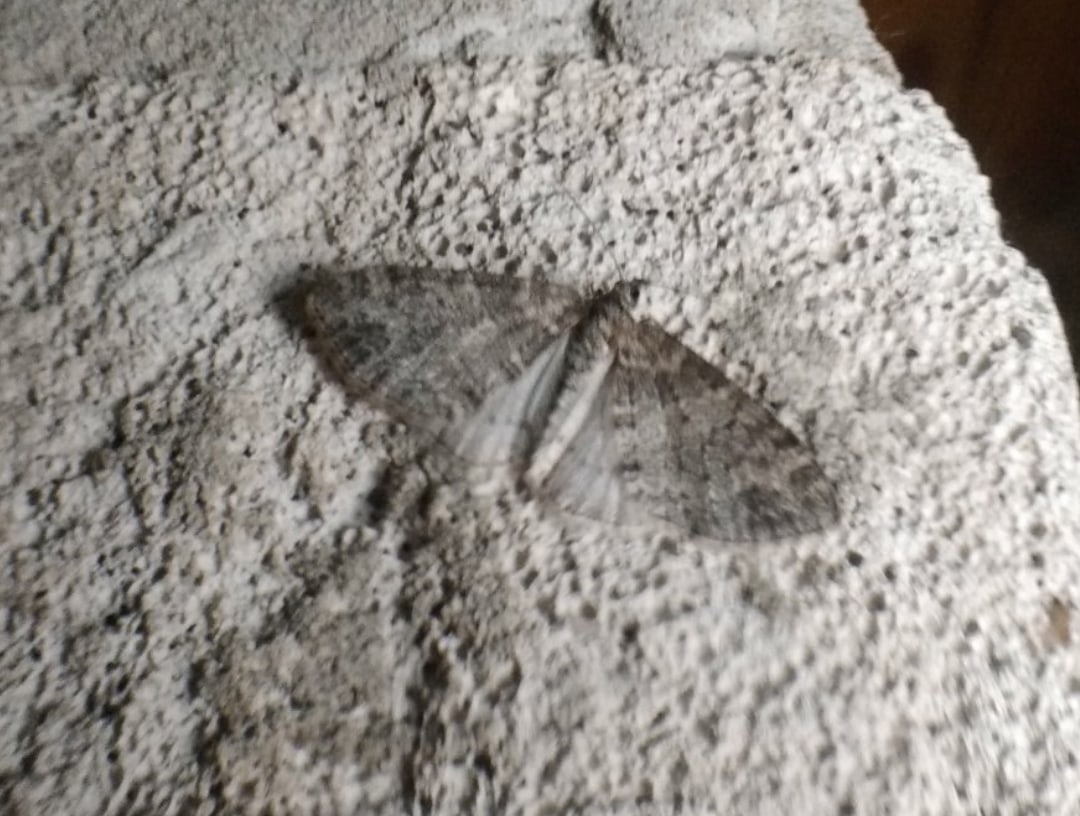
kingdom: Animalia
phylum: Arthropoda
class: Insecta
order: Lepidoptera
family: Geometridae
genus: Lobophora
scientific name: Lobophora halterata
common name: Seraphim
